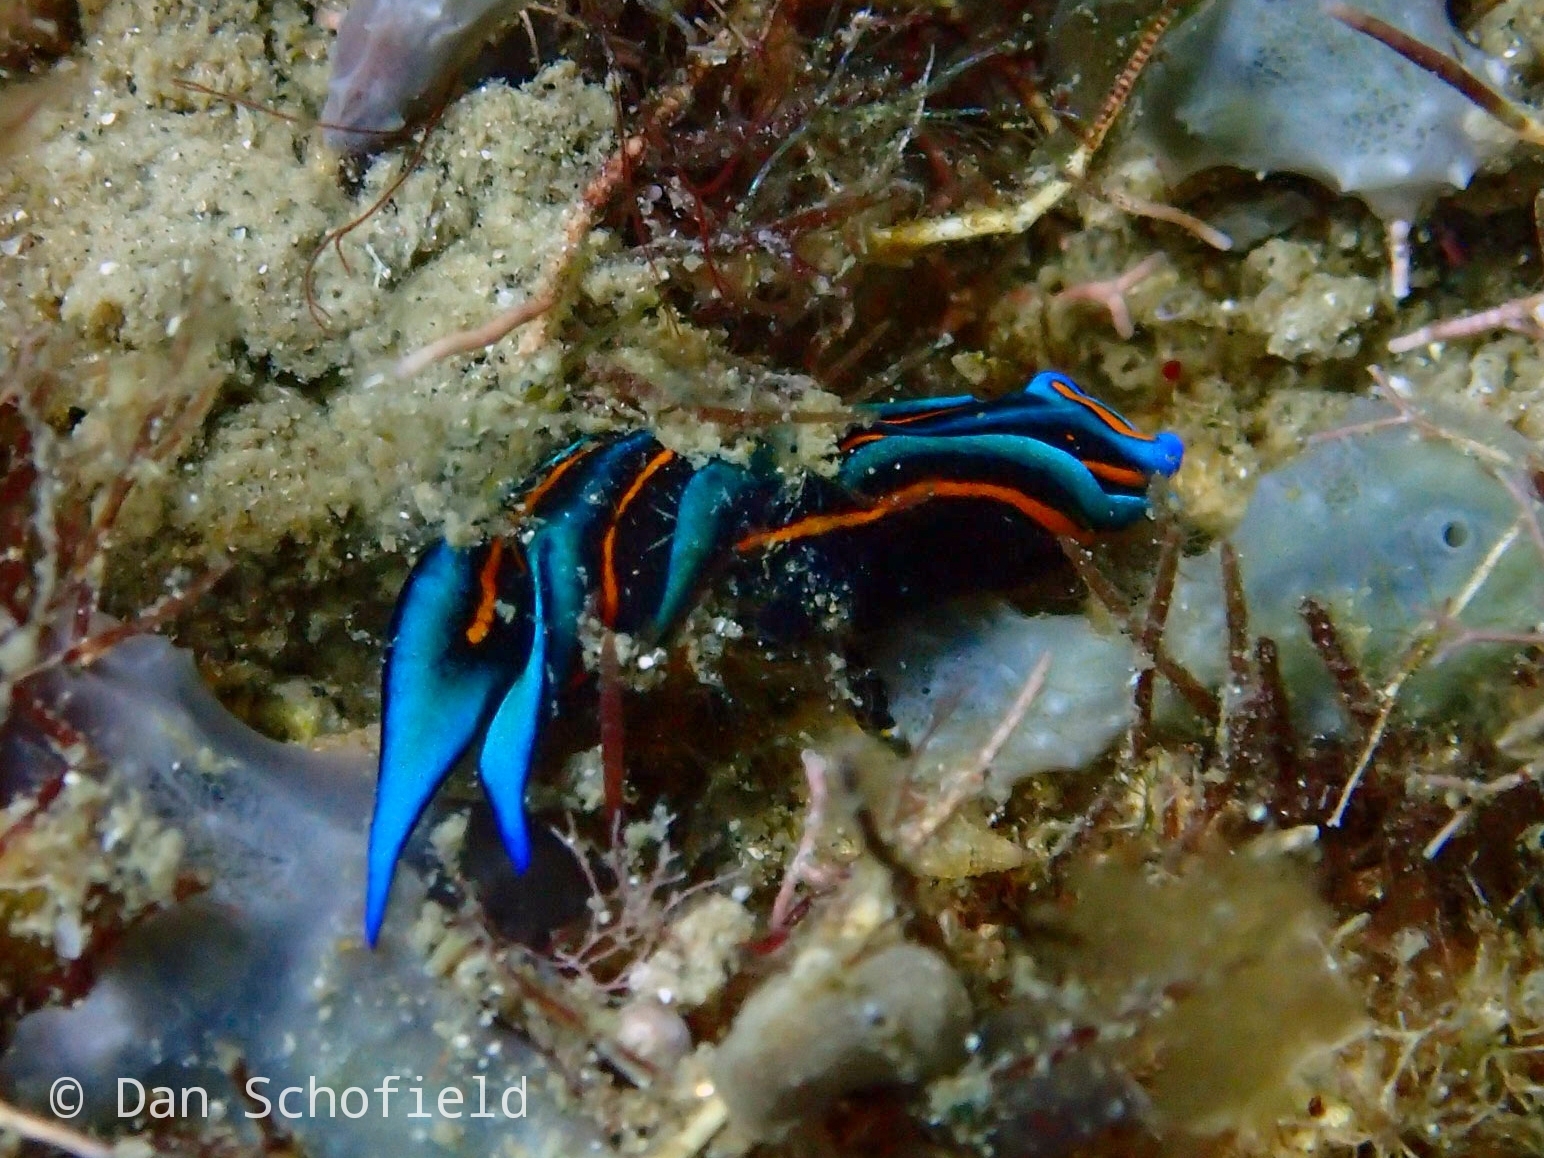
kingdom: Animalia
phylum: Mollusca
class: Gastropoda
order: Cephalaspidea
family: Aglajidae
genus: Chelidonura
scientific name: Chelidonura hirundinina
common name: Leech headshield slug
